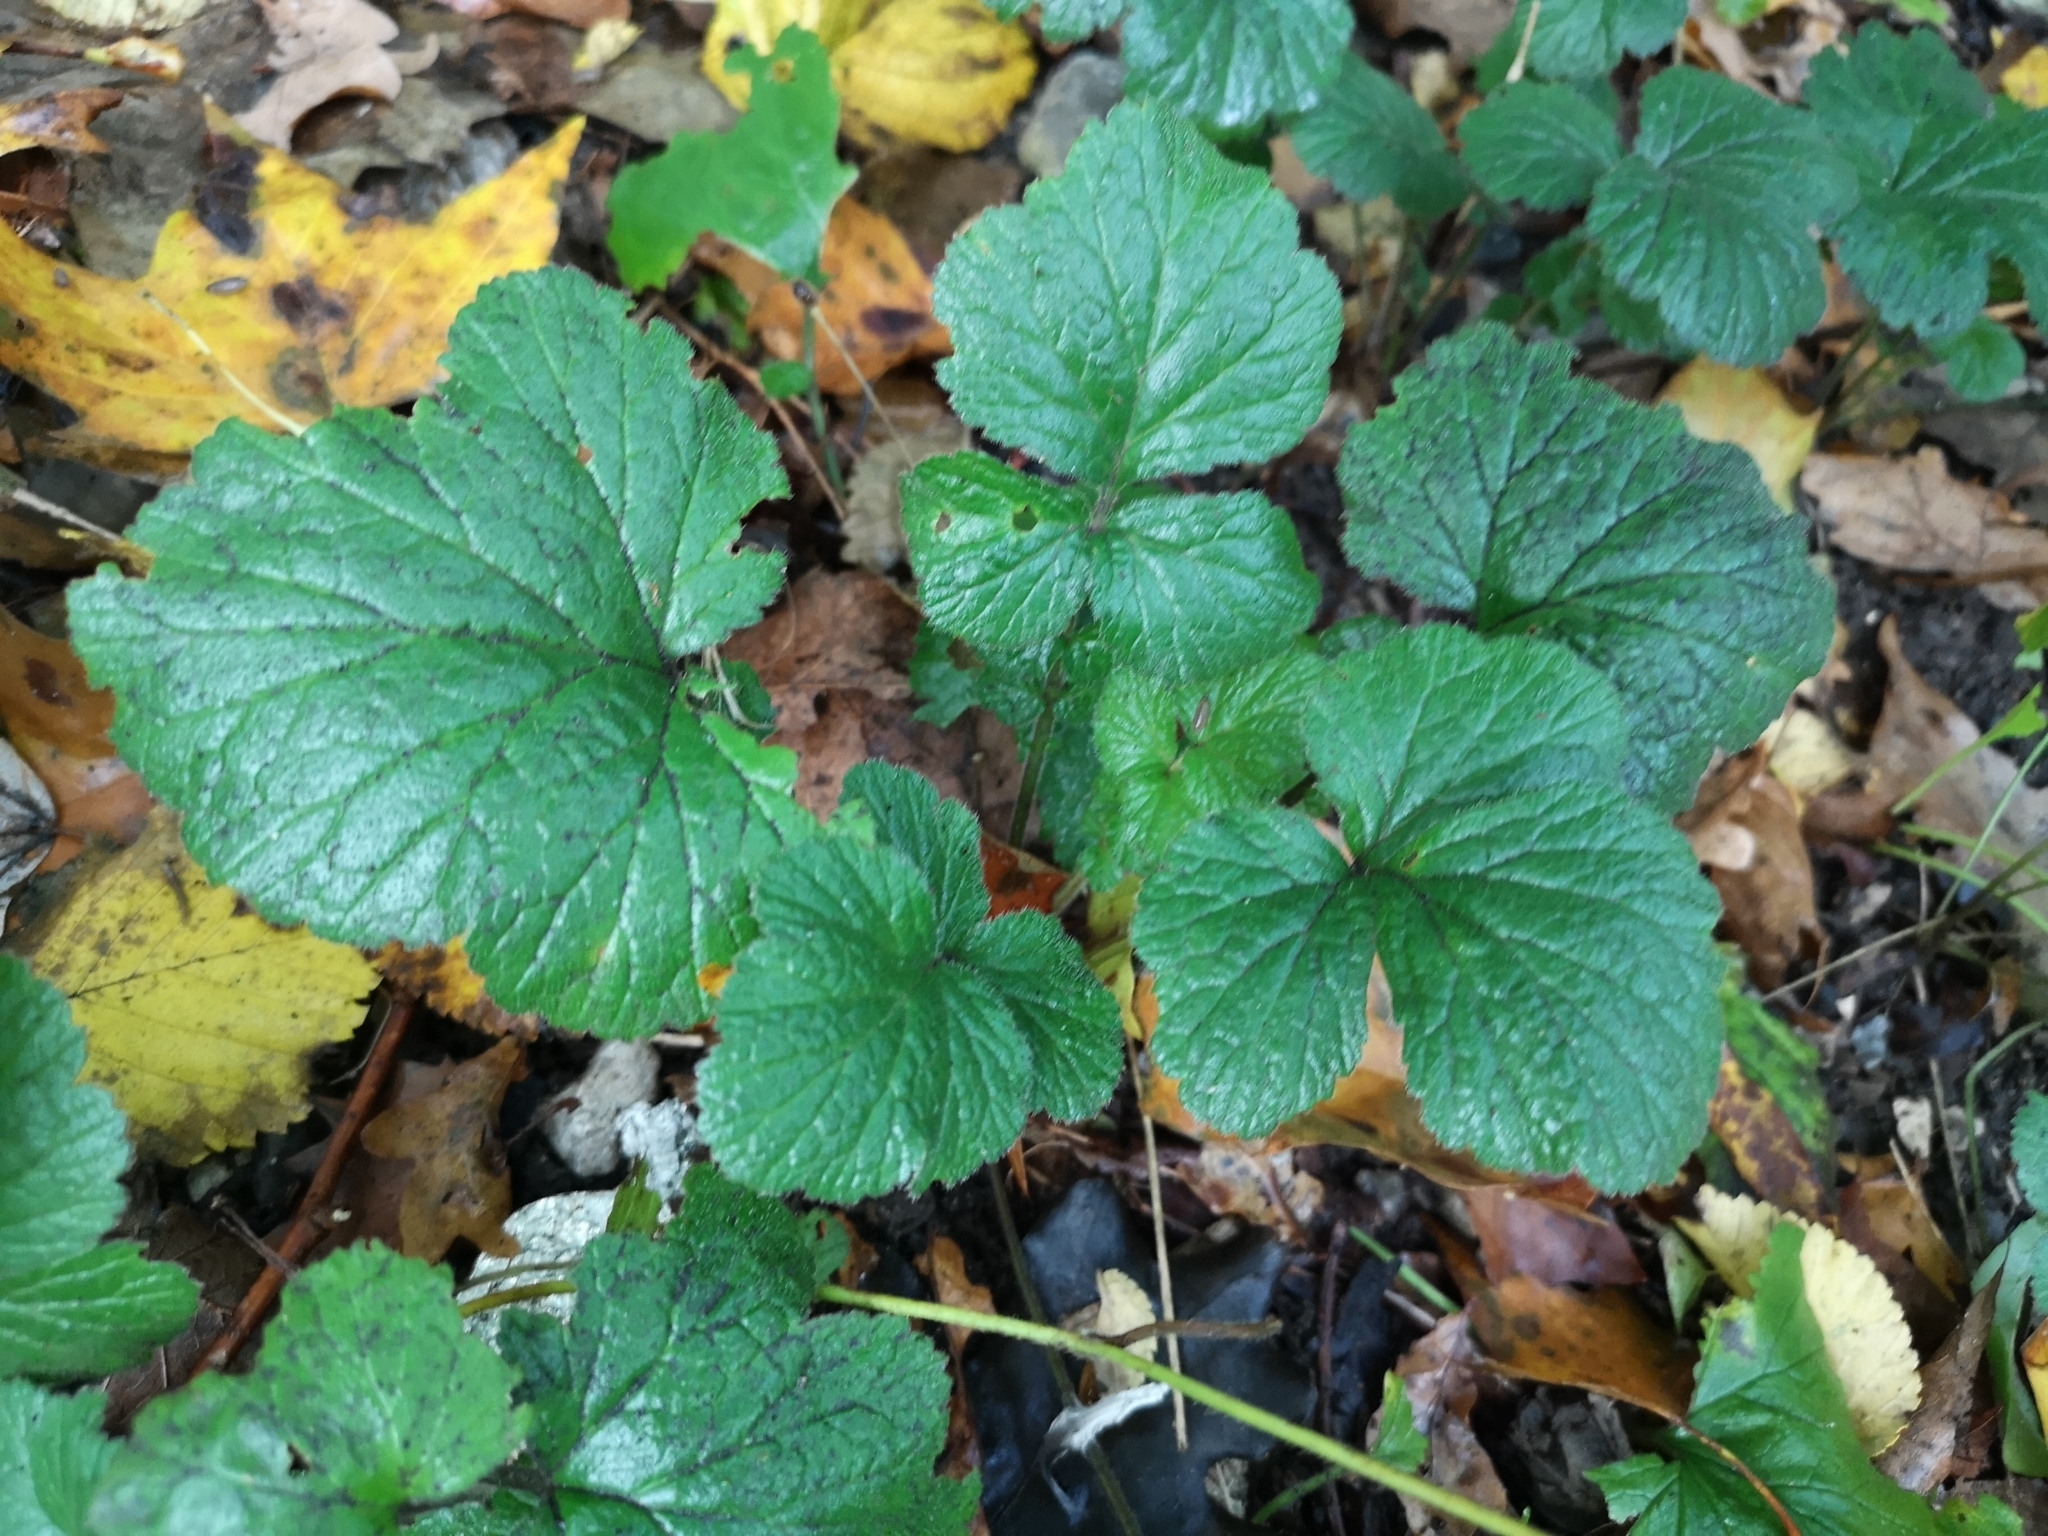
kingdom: Plantae
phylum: Tracheophyta
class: Magnoliopsida
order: Rosales
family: Rosaceae
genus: Geum
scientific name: Geum urbanum
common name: Wood avens
